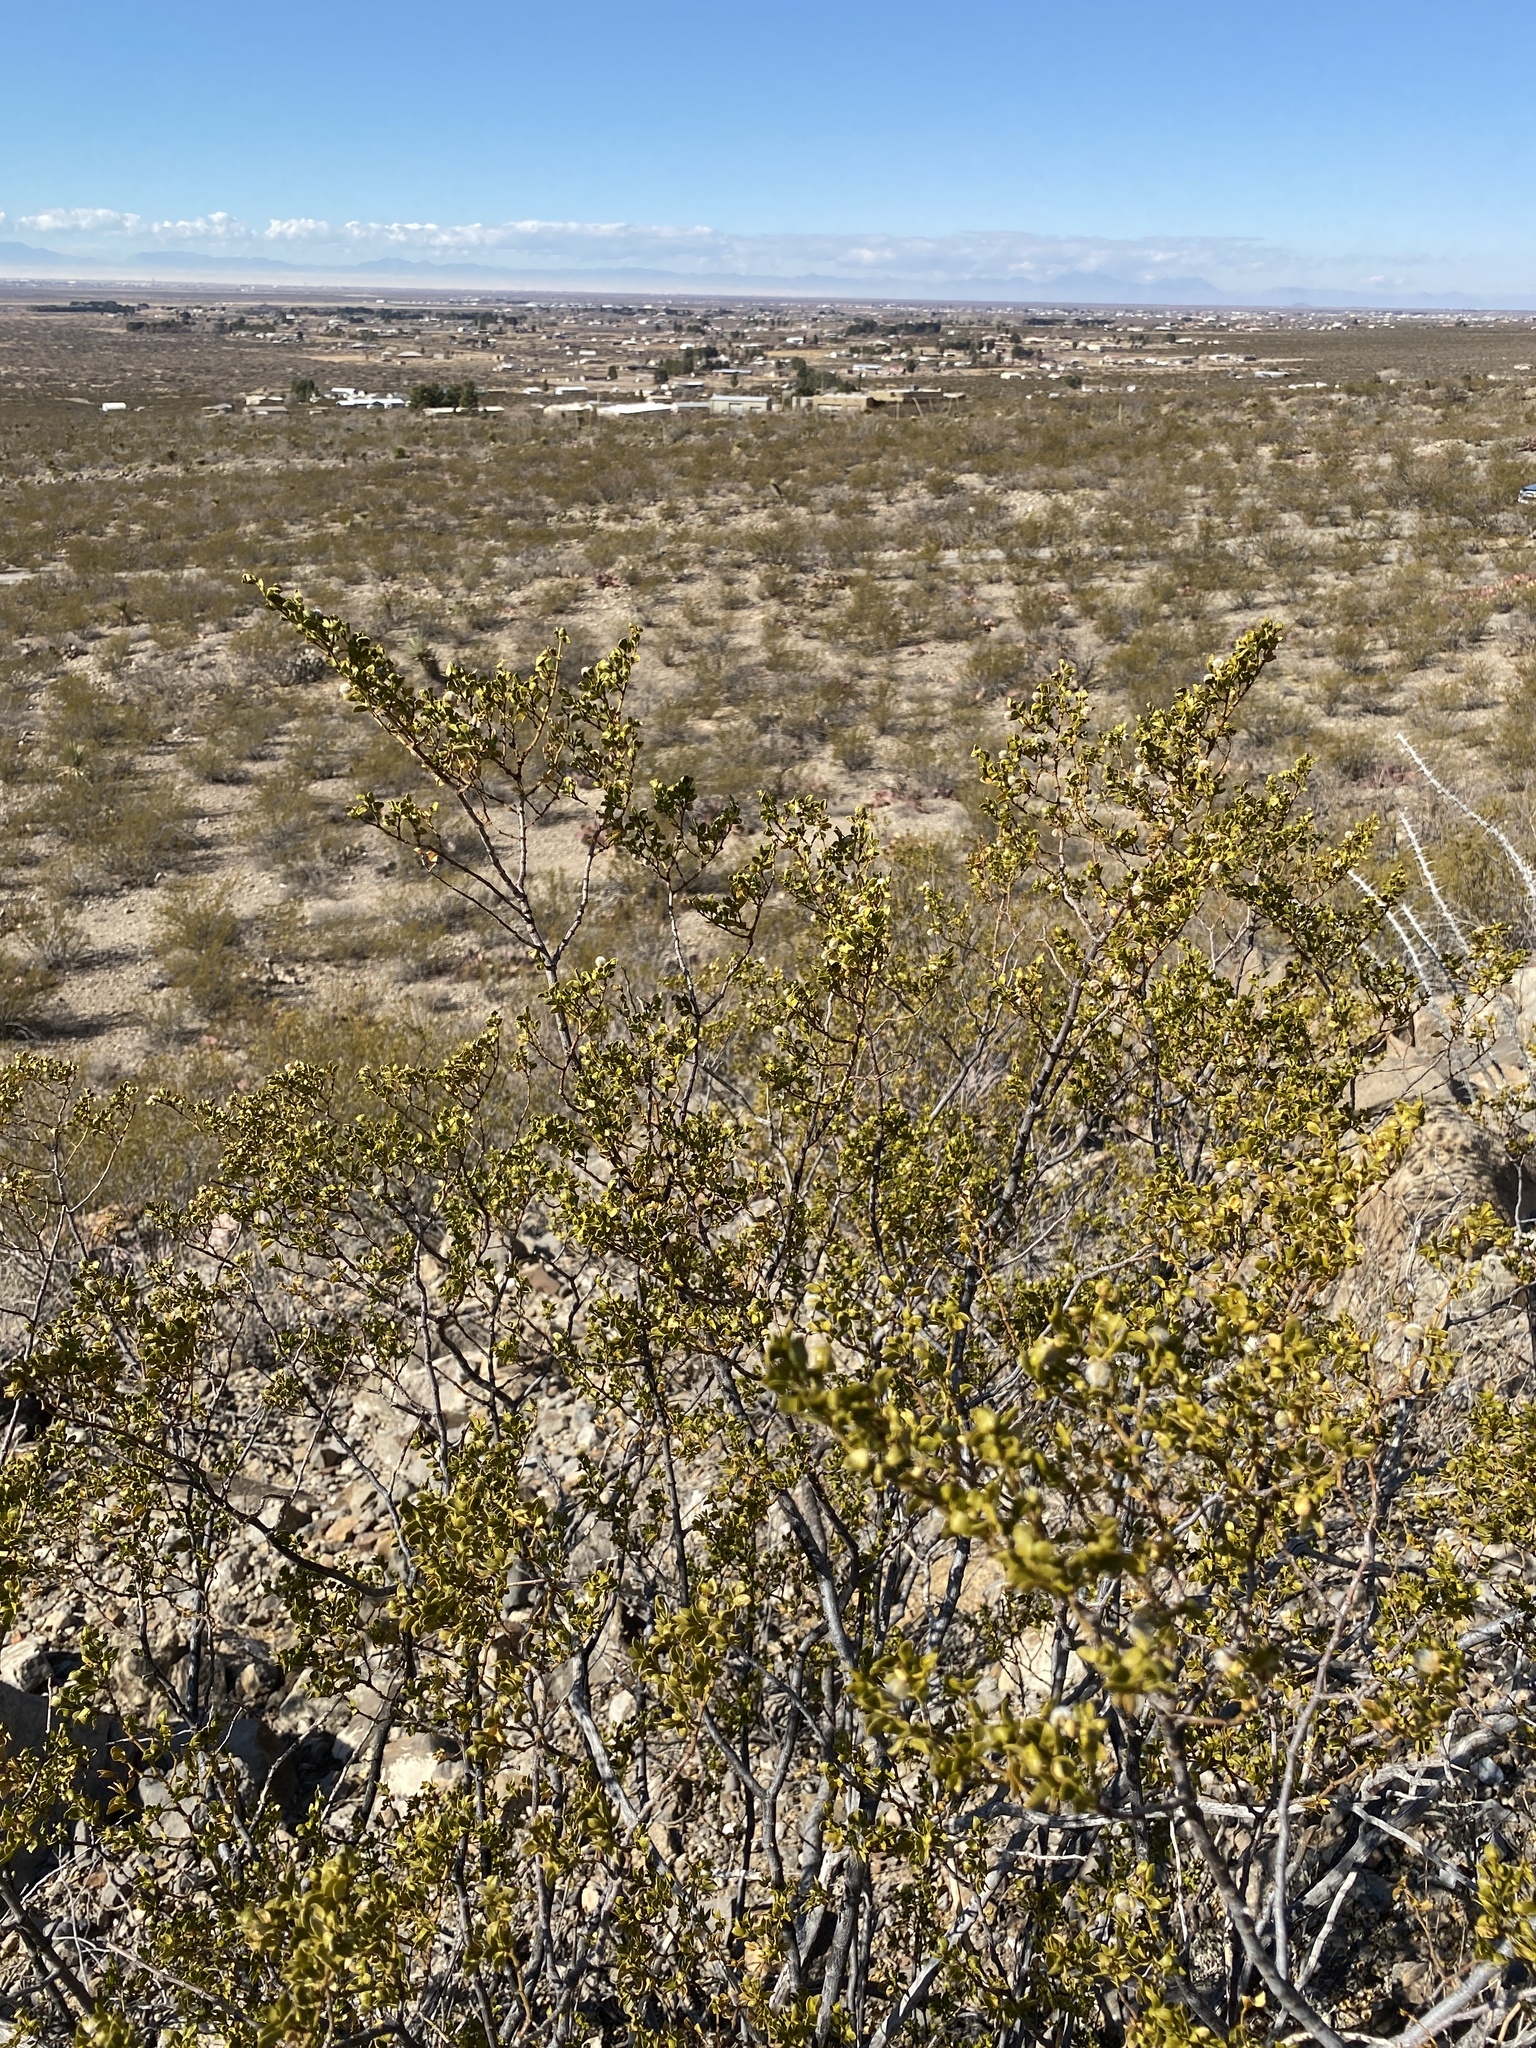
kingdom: Plantae
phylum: Tracheophyta
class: Magnoliopsida
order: Zygophyllales
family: Zygophyllaceae
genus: Larrea
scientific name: Larrea tridentata
